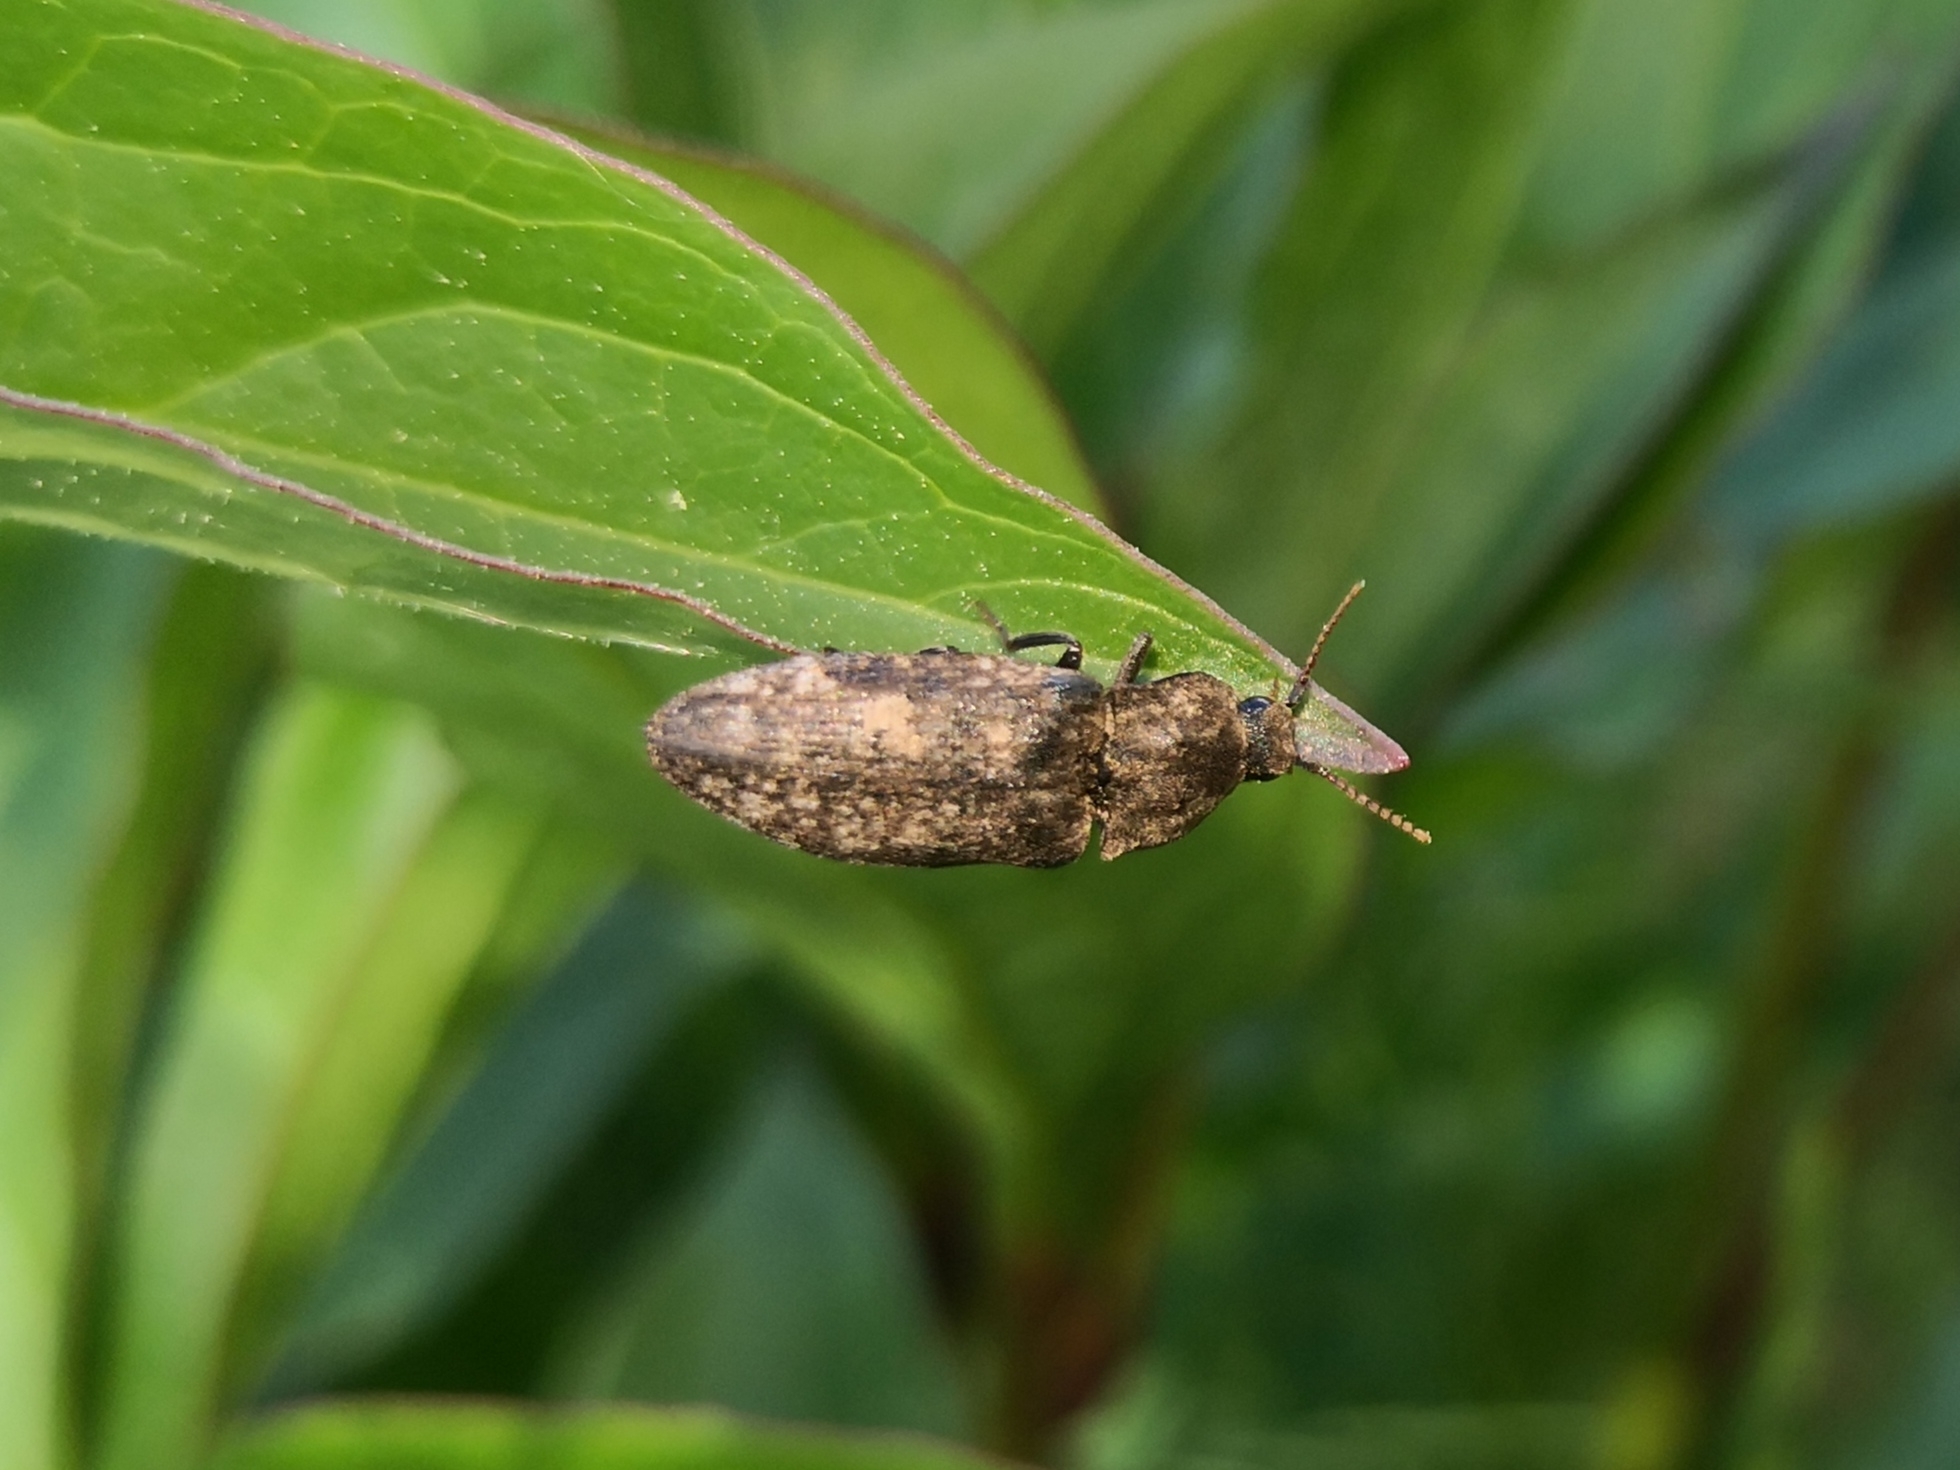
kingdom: Animalia
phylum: Arthropoda
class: Insecta
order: Coleoptera
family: Elateridae
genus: Agrypnus
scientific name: Agrypnus murinus
